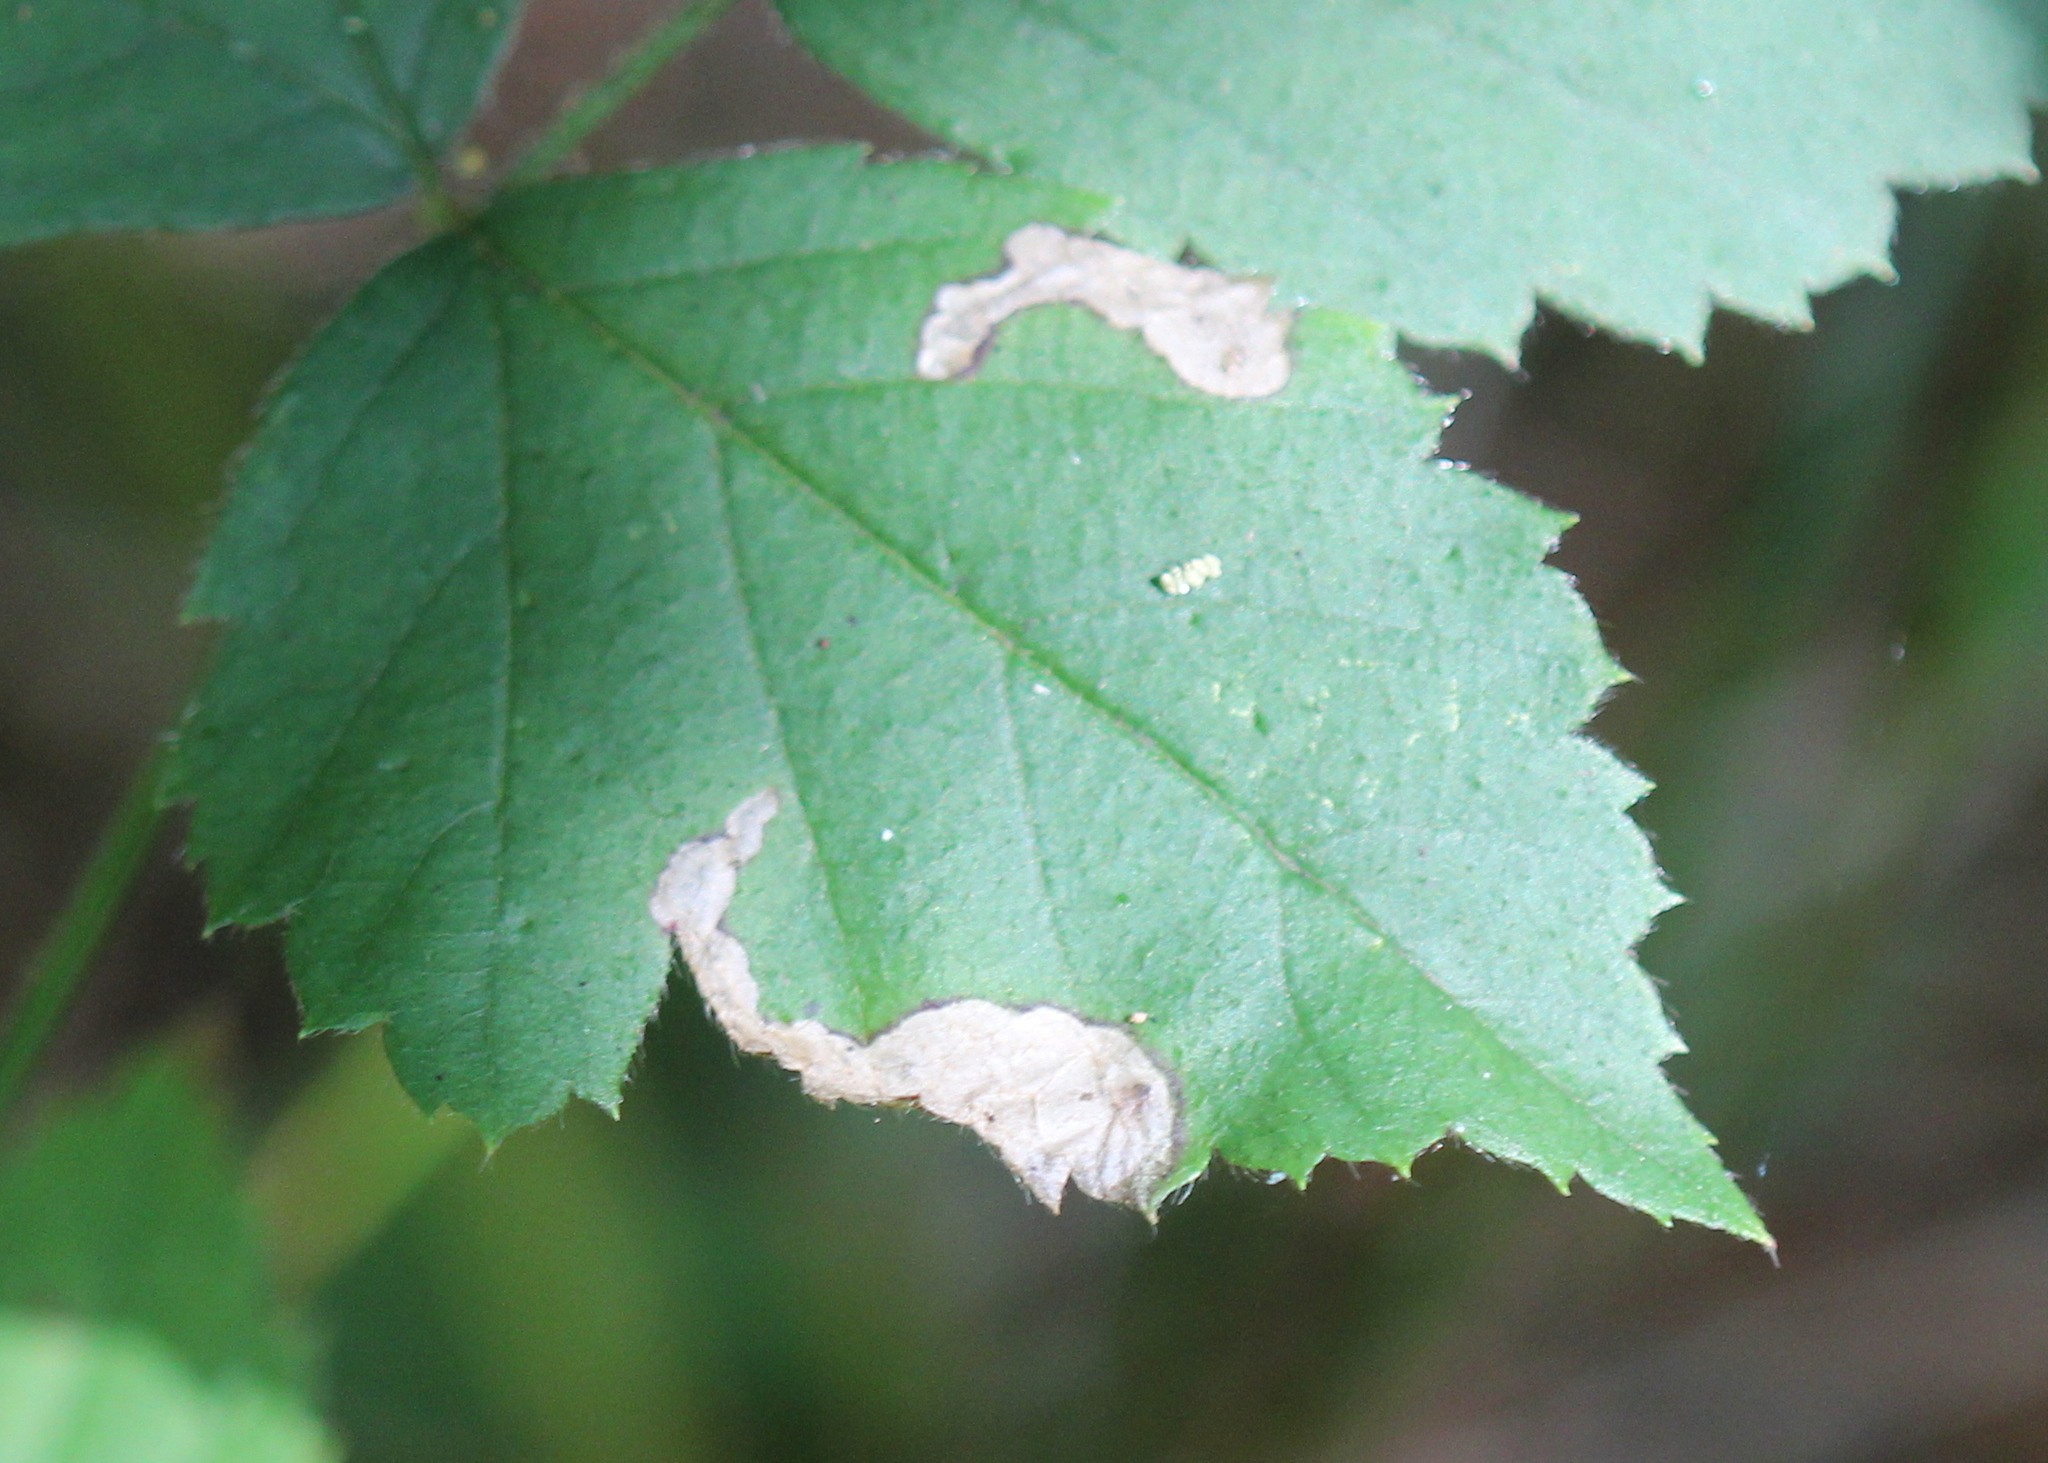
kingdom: Animalia
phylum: Arthropoda
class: Insecta
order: Hymenoptera
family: Tenthredinidae
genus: Metallus
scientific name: Metallus rohweri
